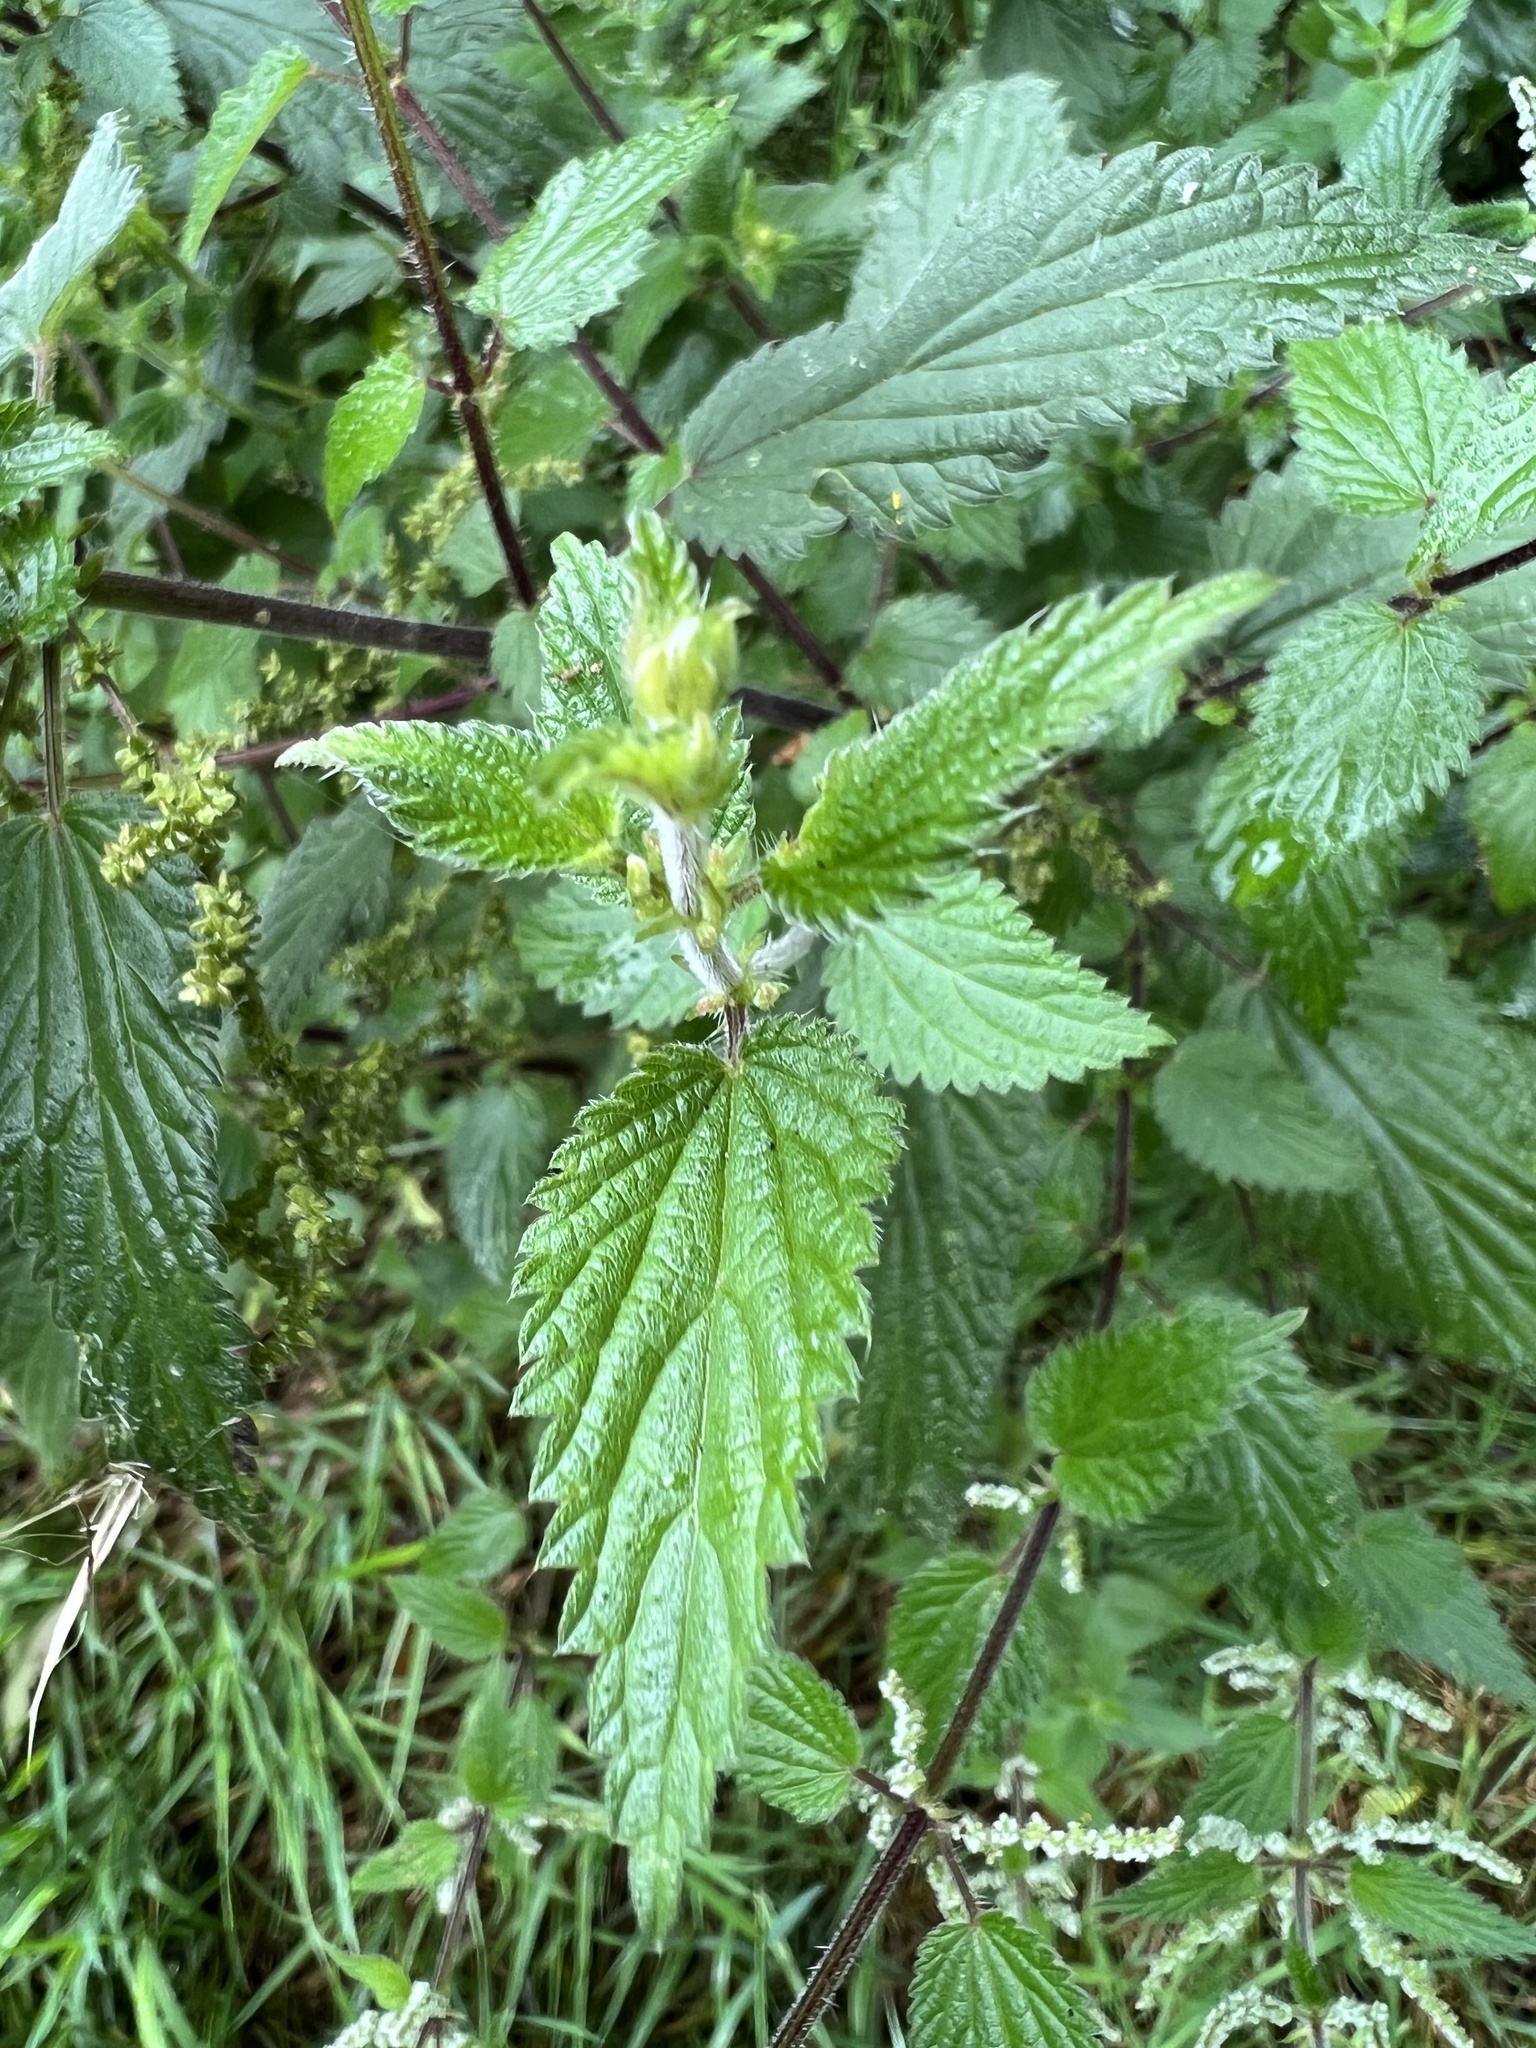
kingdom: Plantae
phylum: Tracheophyta
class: Magnoliopsida
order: Rosales
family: Urticaceae
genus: Urtica
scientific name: Urtica dioica
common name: Common nettle
